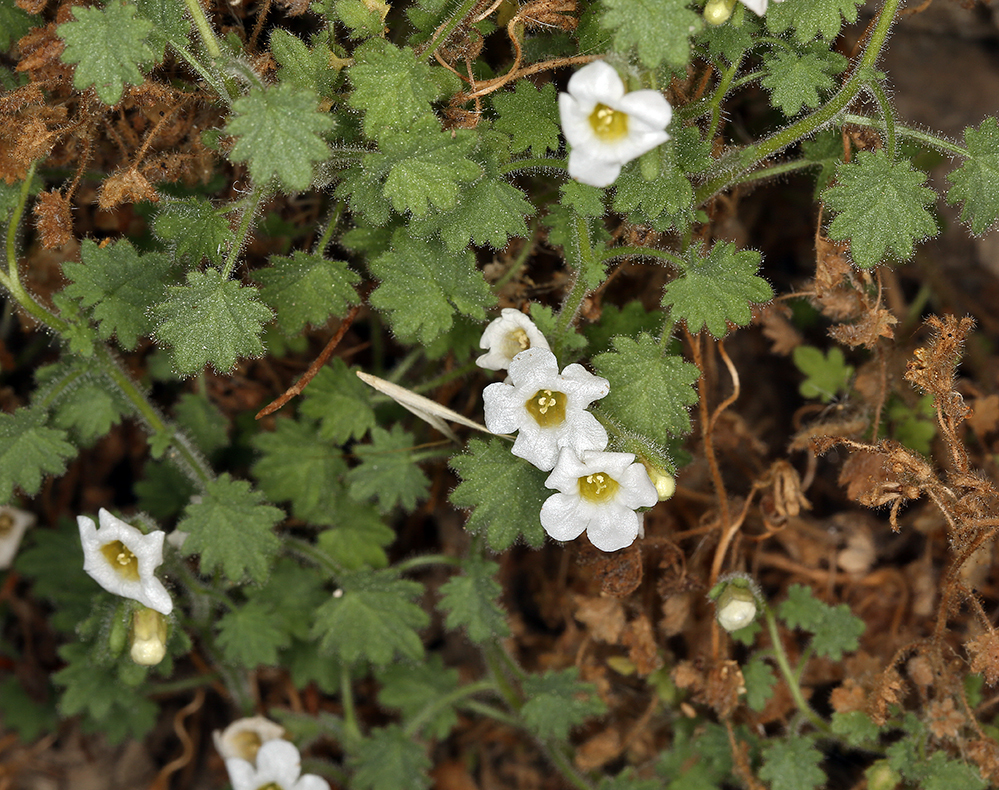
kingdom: Plantae
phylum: Tracheophyta
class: Magnoliopsida
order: Boraginales
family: Hydrophyllaceae
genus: Phacelia
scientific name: Phacelia perityloides
